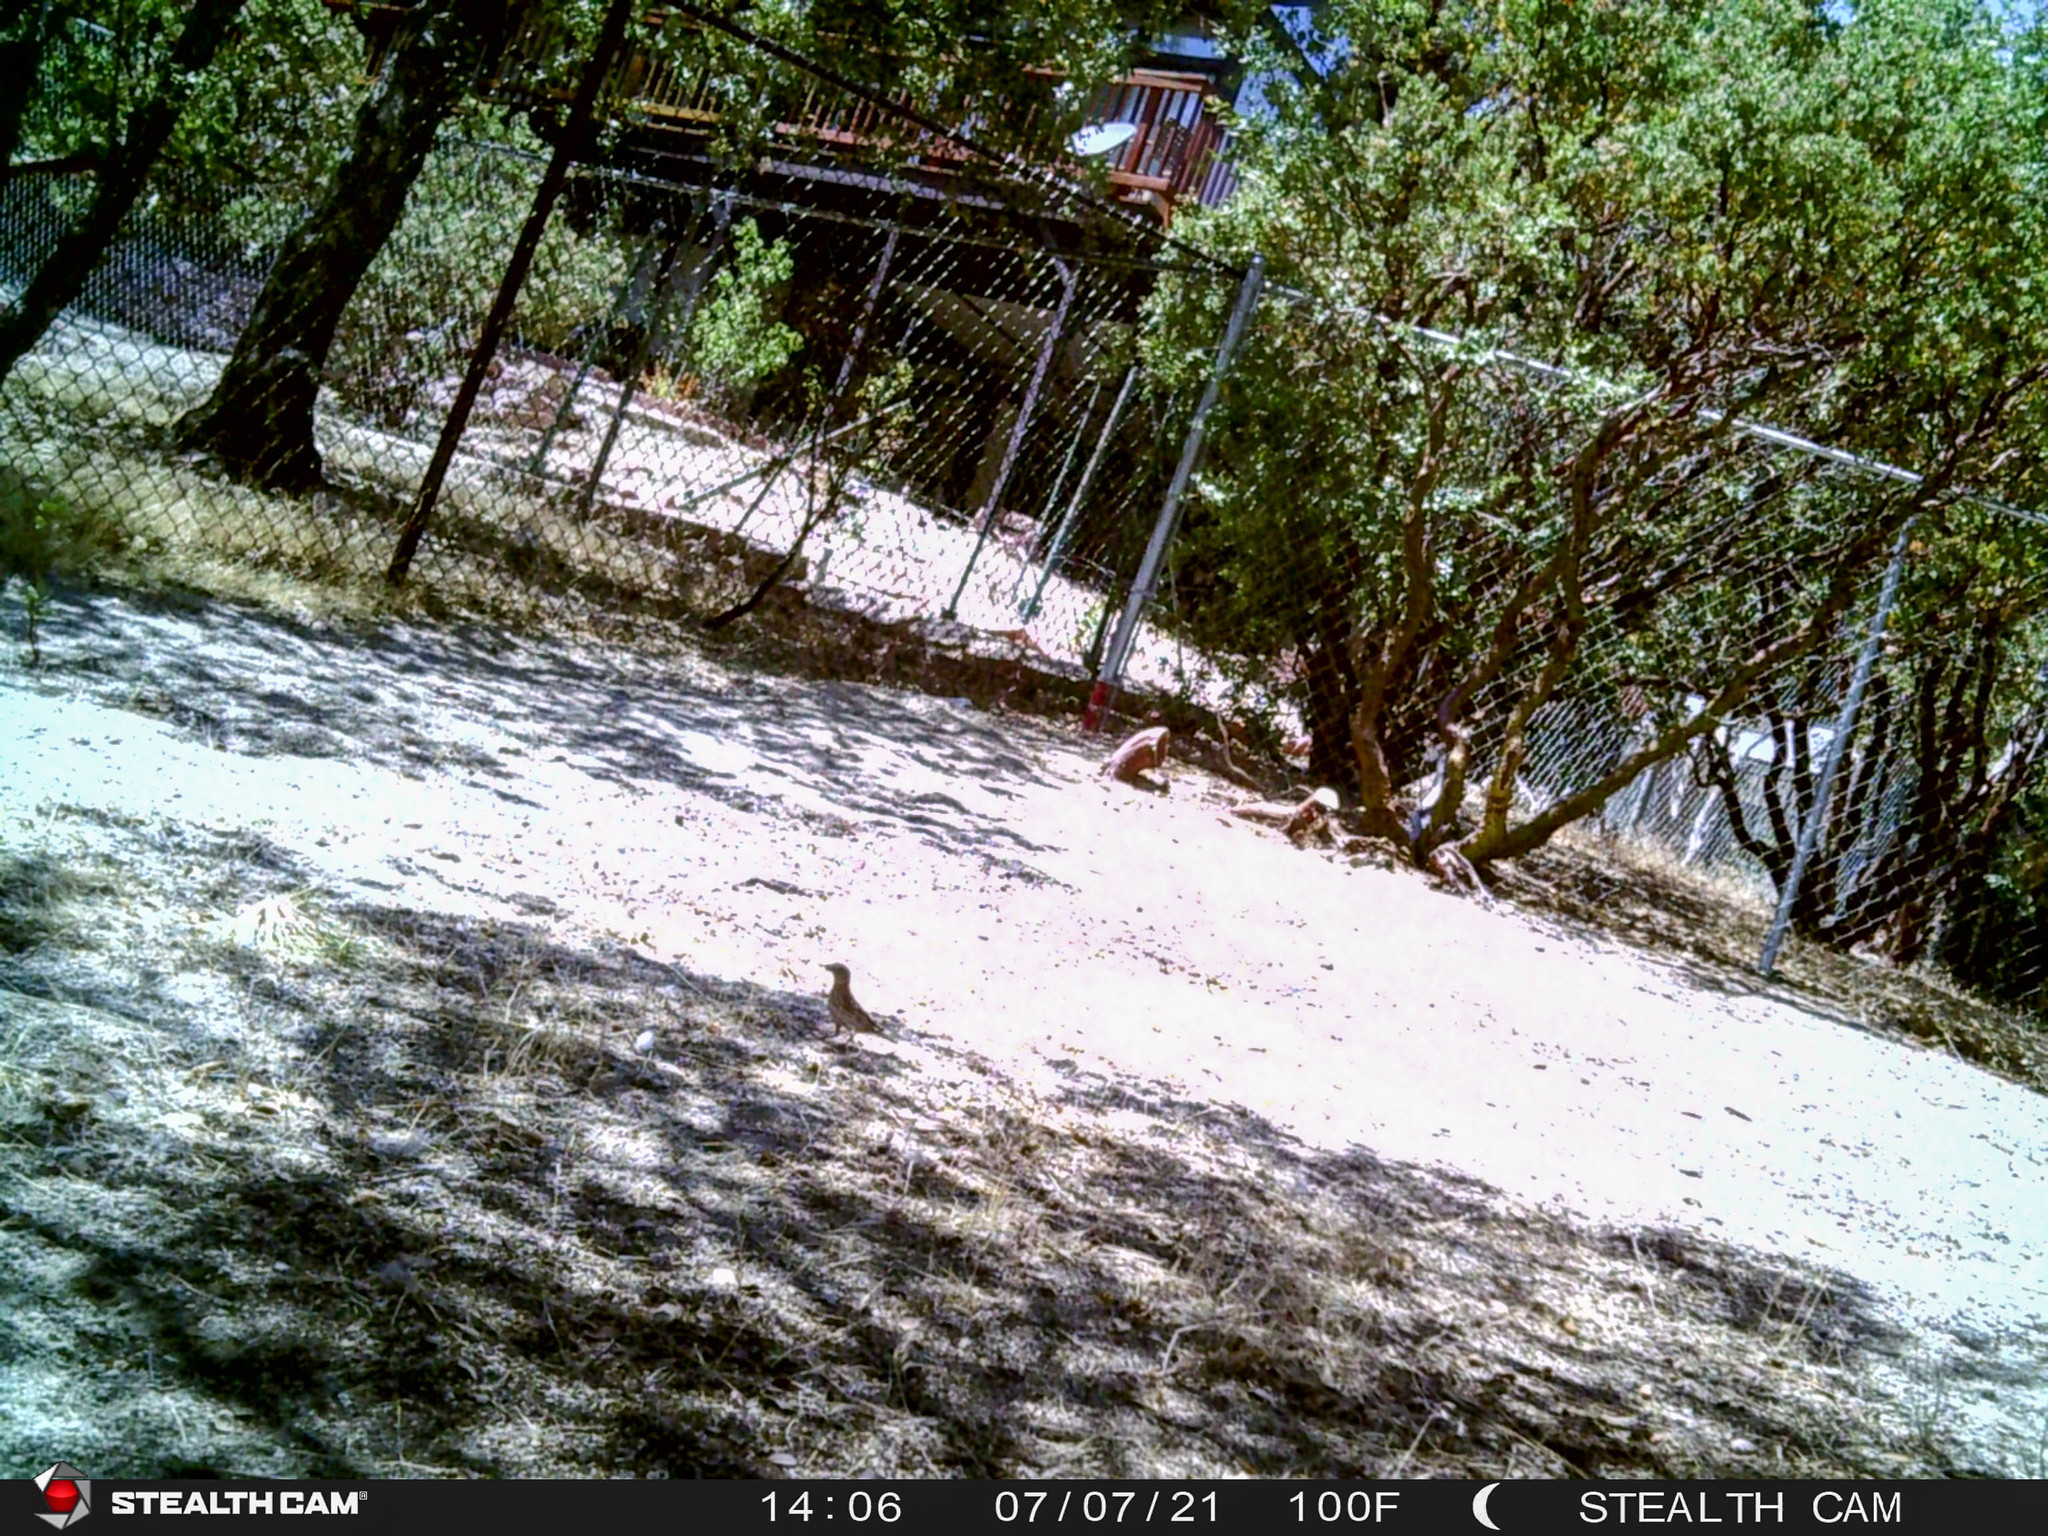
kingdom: Animalia
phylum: Chordata
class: Aves
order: Passeriformes
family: Fringillidae
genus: Haemorhous
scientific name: Haemorhous mexicanus
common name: House finch
